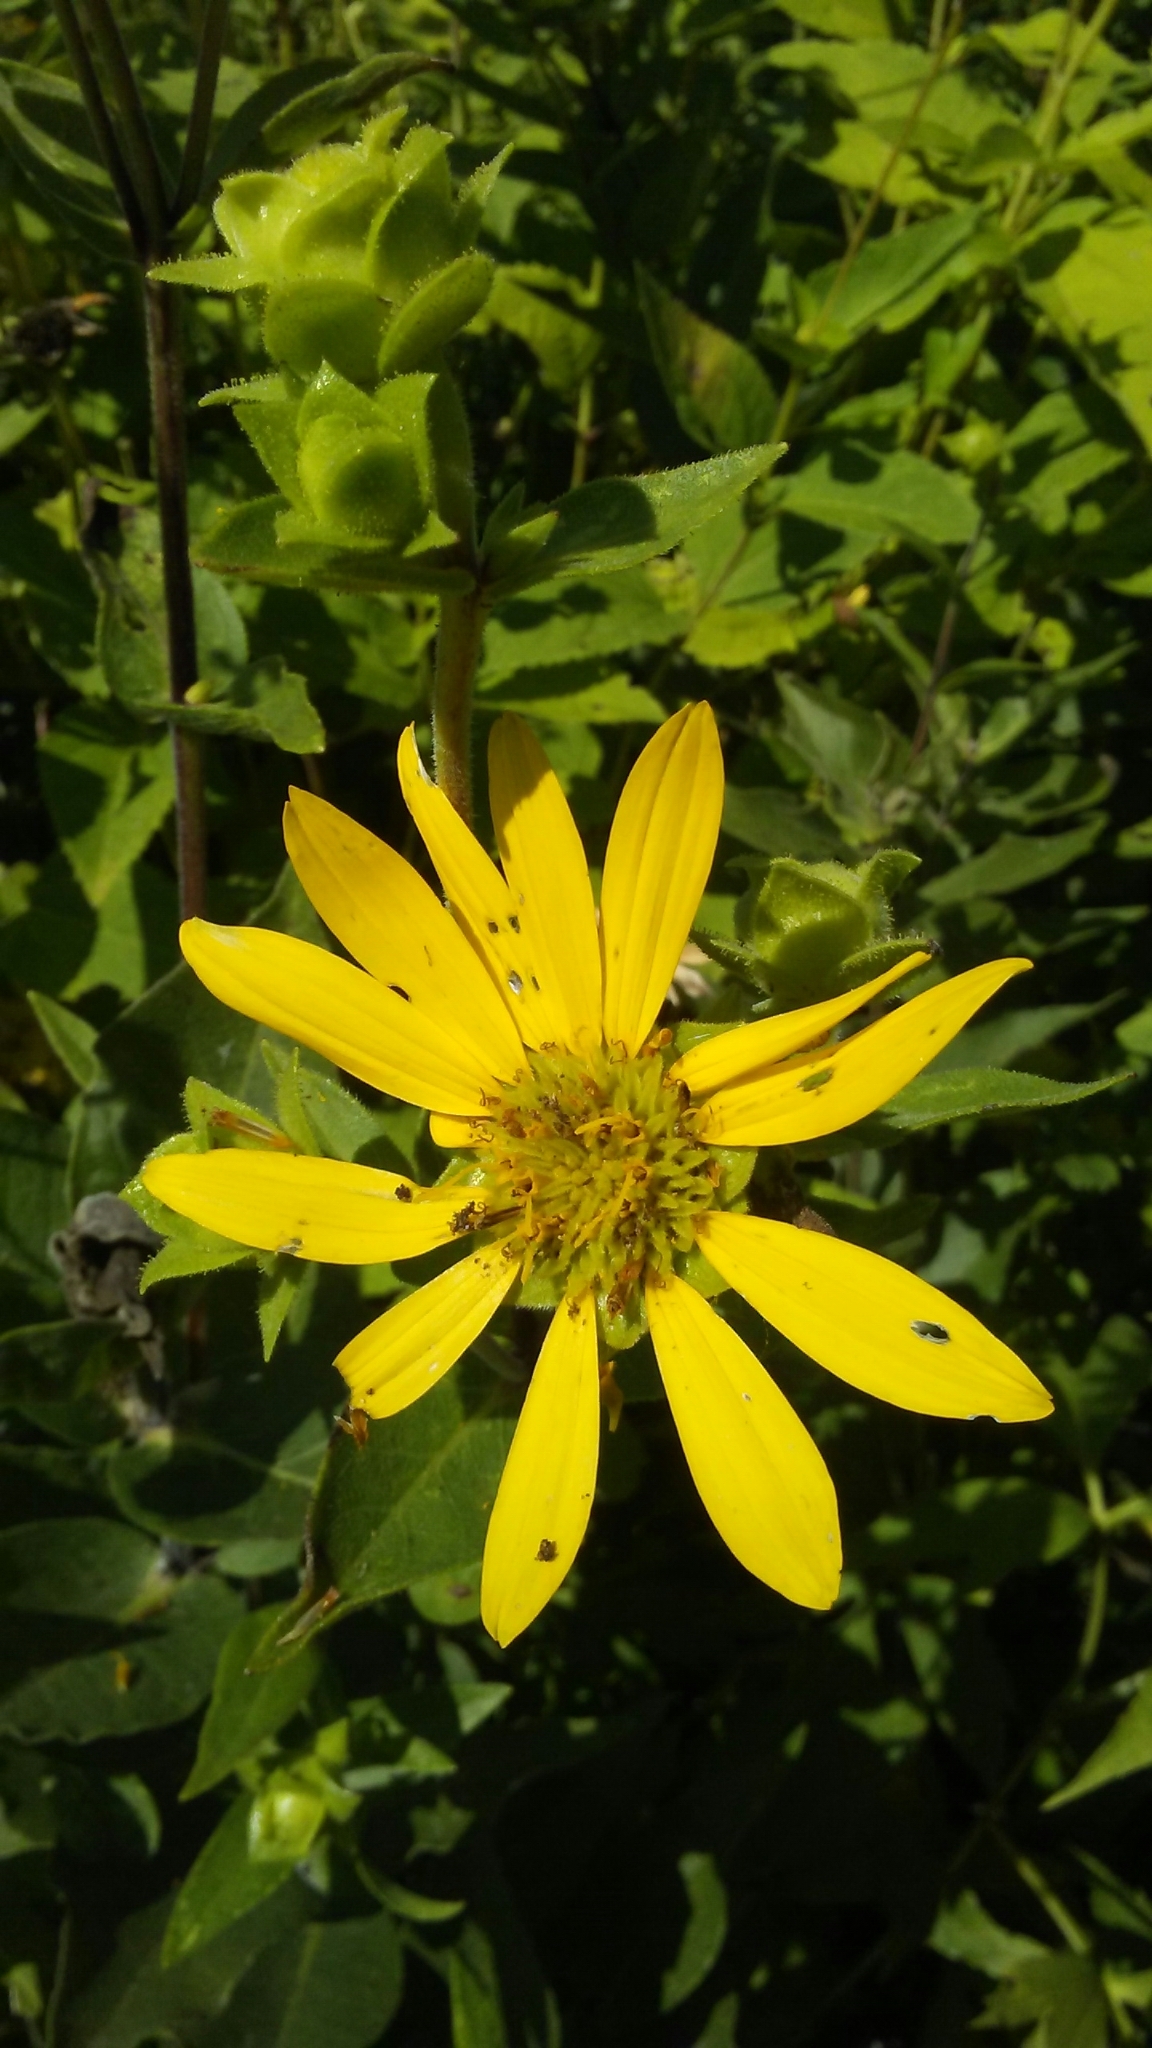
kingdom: Plantae
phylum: Tracheophyta
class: Magnoliopsida
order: Asterales
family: Asteraceae
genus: Silphium
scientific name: Silphium integrifolium
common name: Whole-leaf rosinweed
